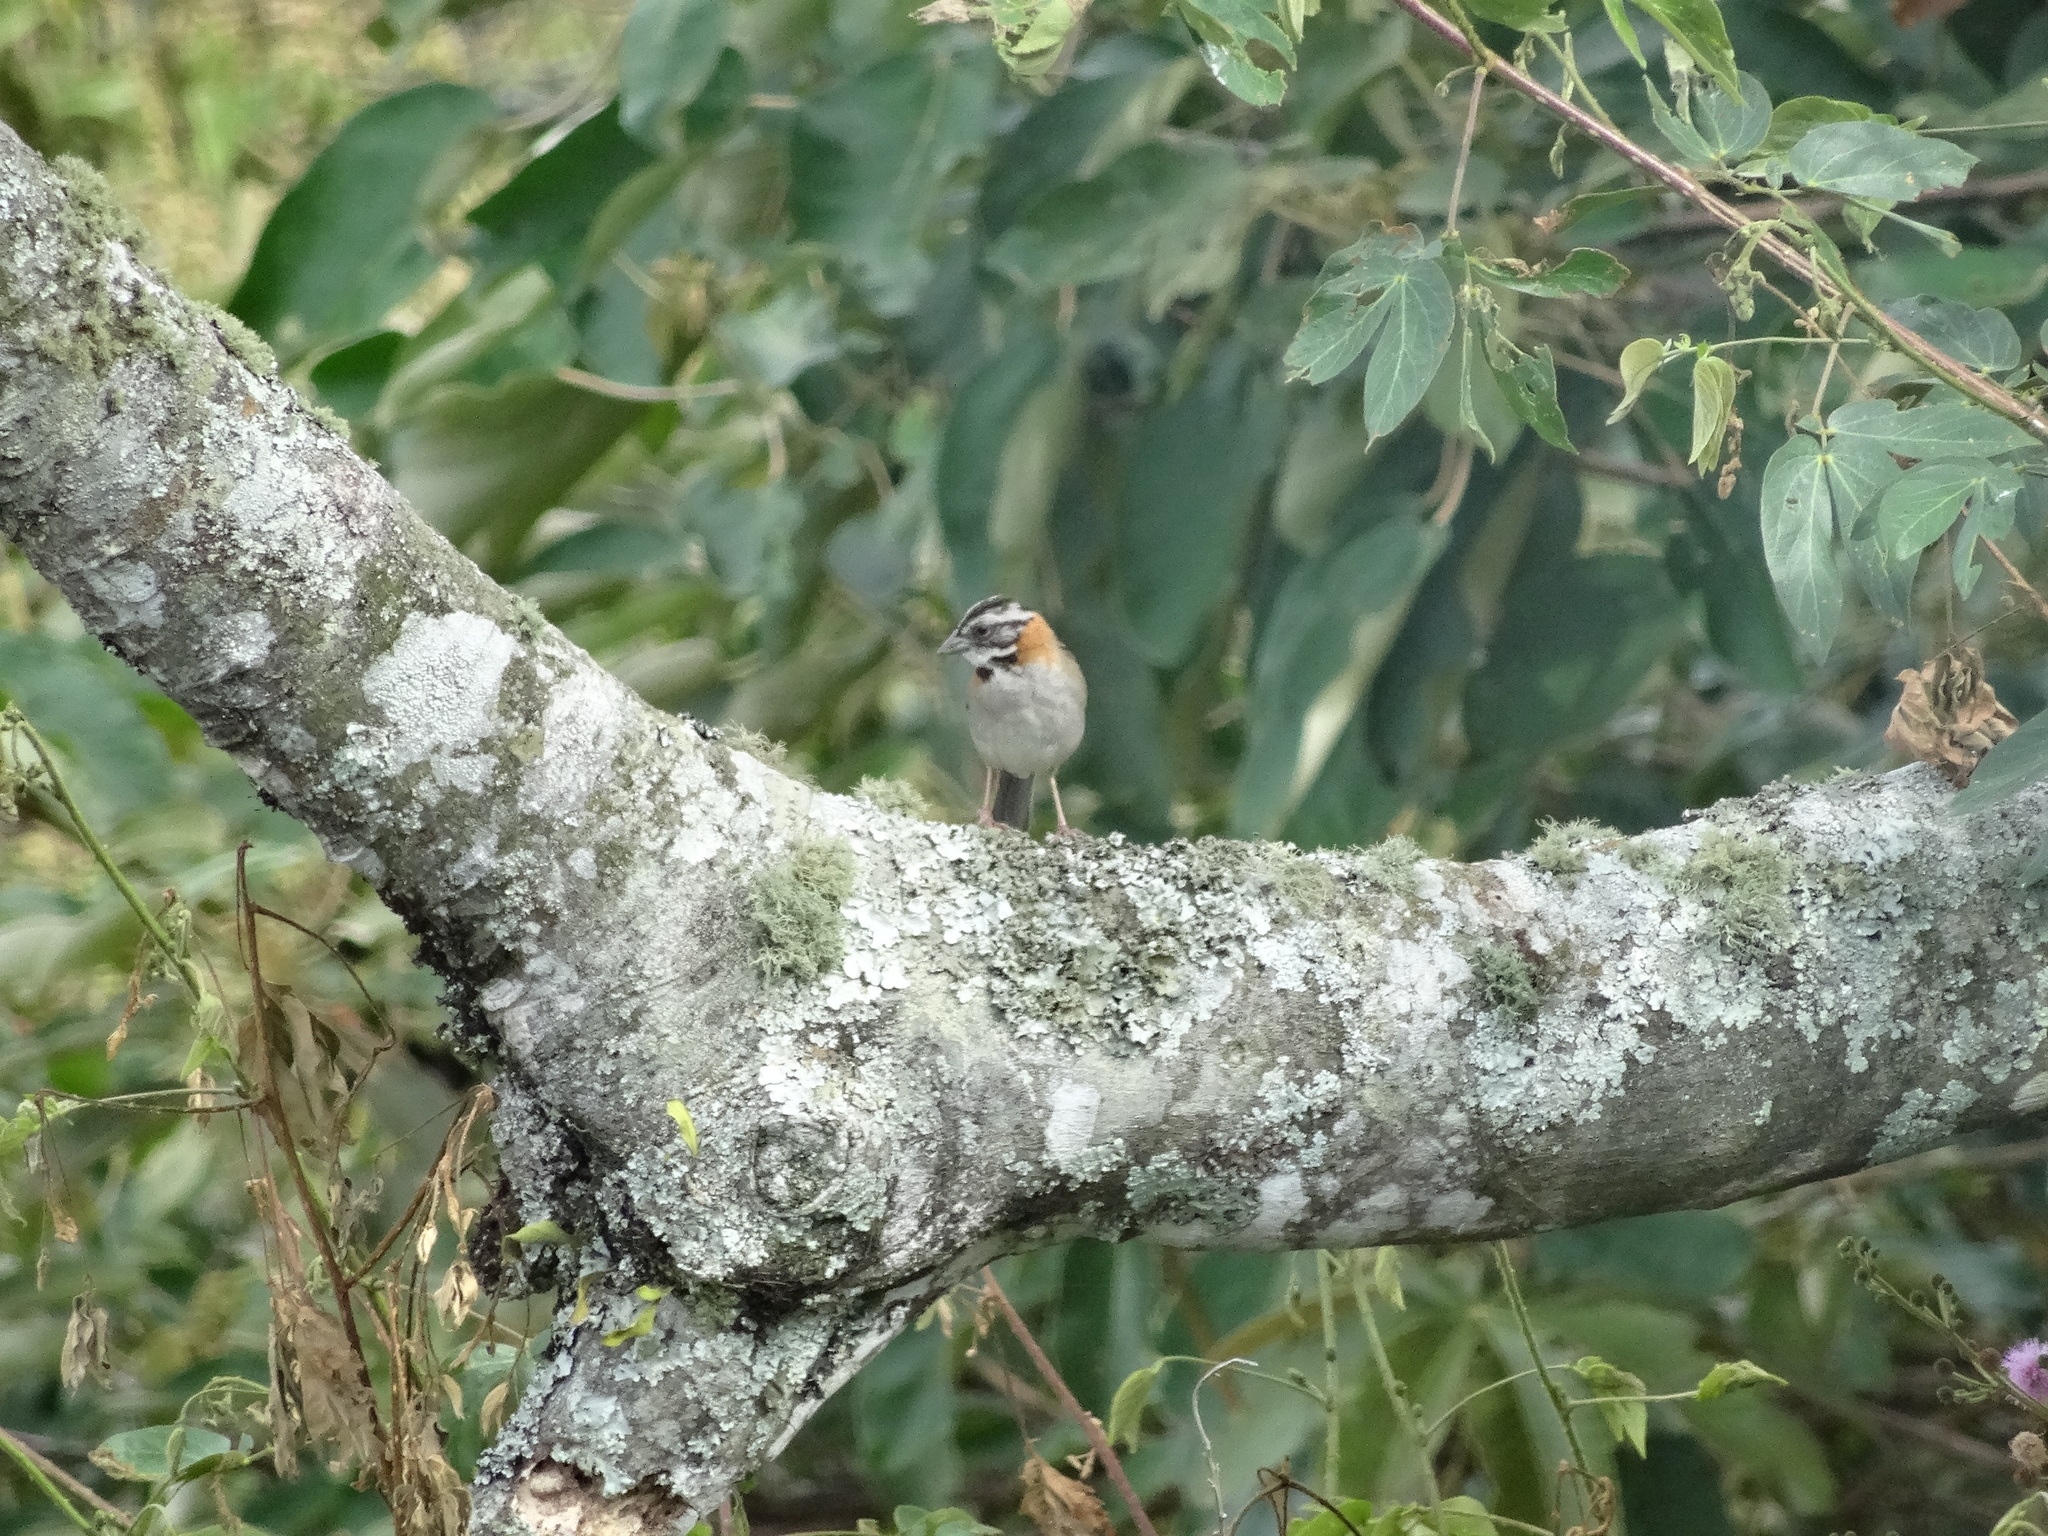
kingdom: Animalia
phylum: Chordata
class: Aves
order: Passeriformes
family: Passerellidae
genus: Zonotrichia
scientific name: Zonotrichia capensis
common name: Rufous-collared sparrow
